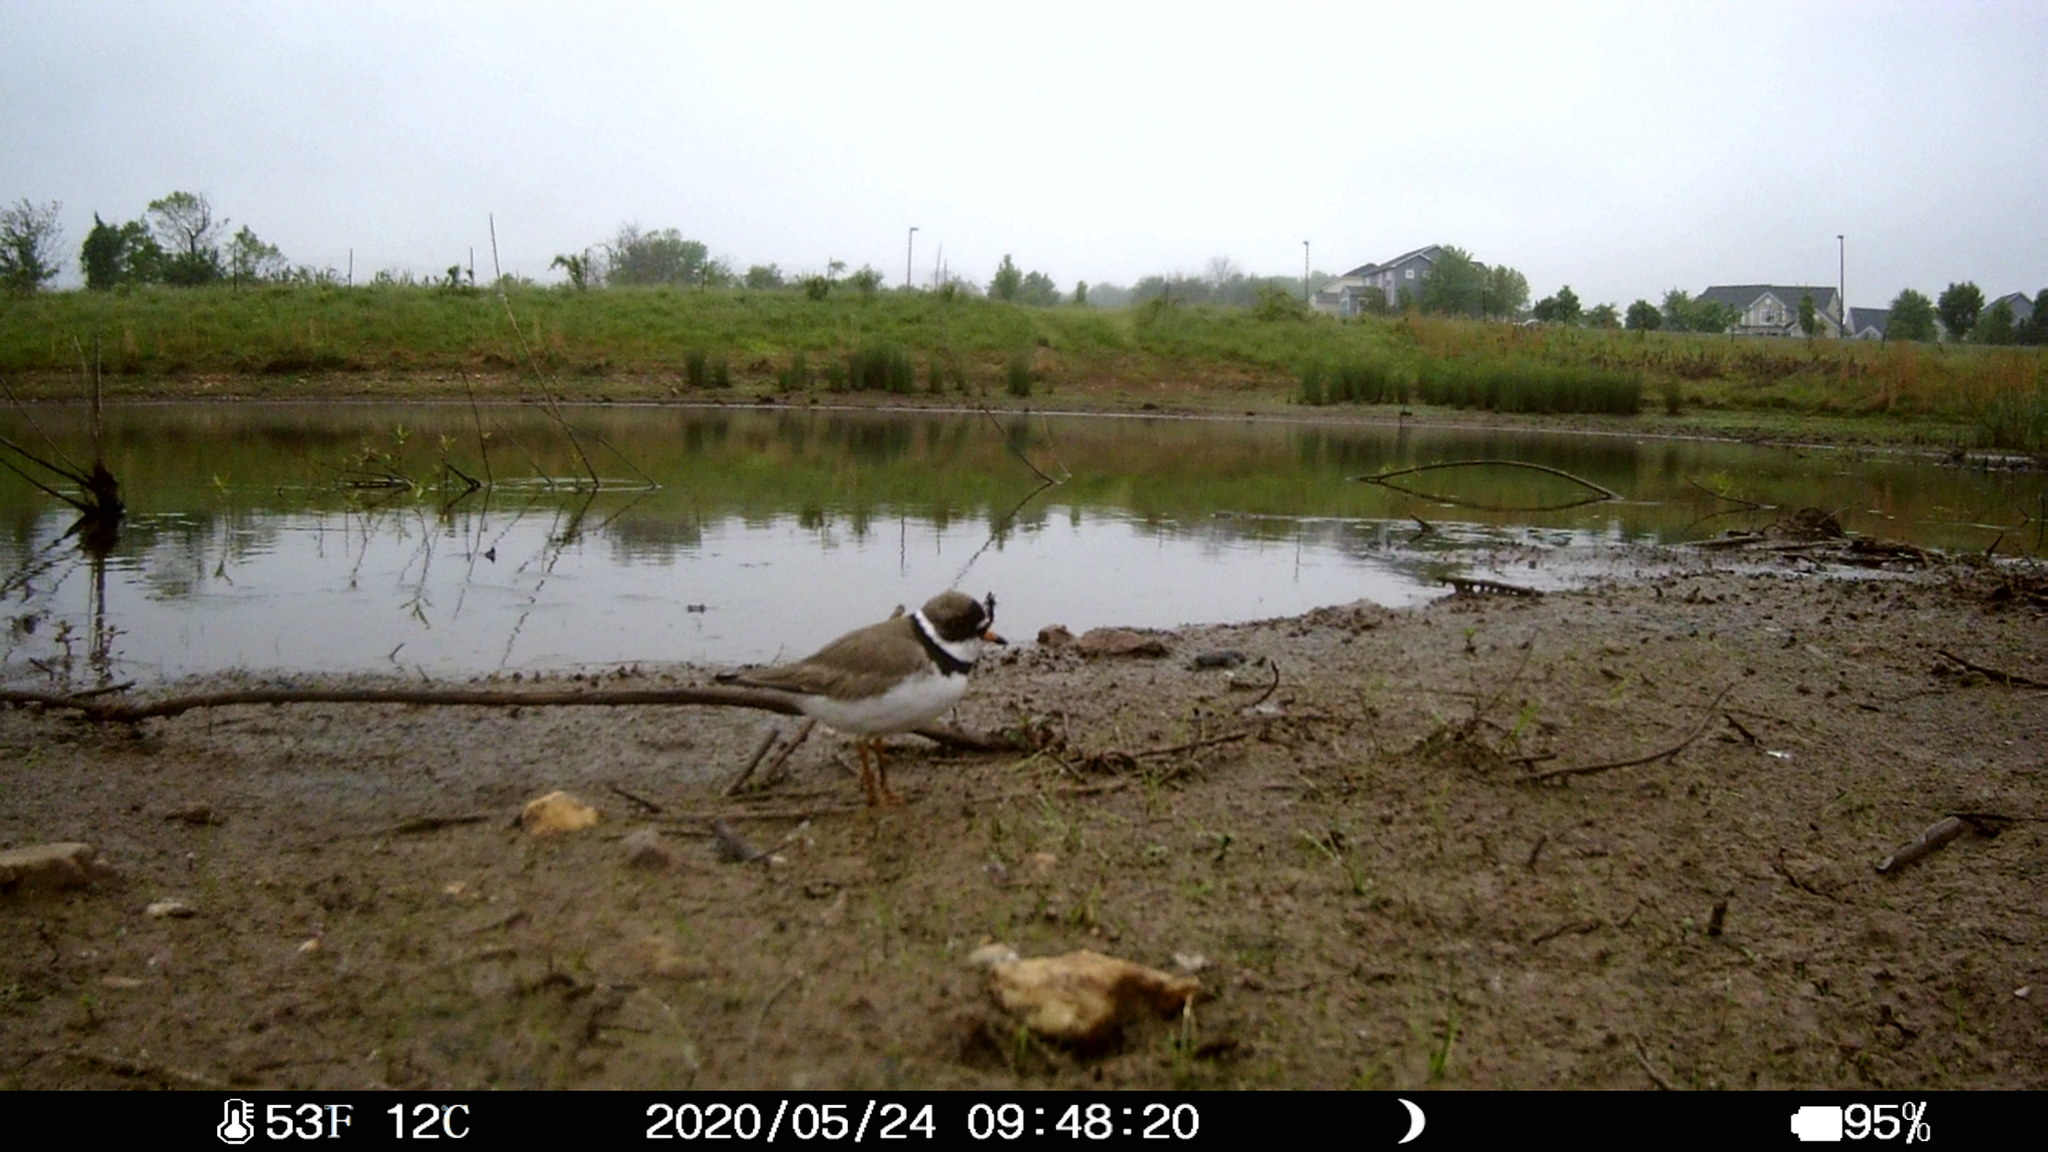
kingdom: Animalia
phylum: Chordata
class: Aves
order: Charadriiformes
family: Charadriidae
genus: Charadrius
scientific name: Charadrius semipalmatus
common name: Semipalmated plover
